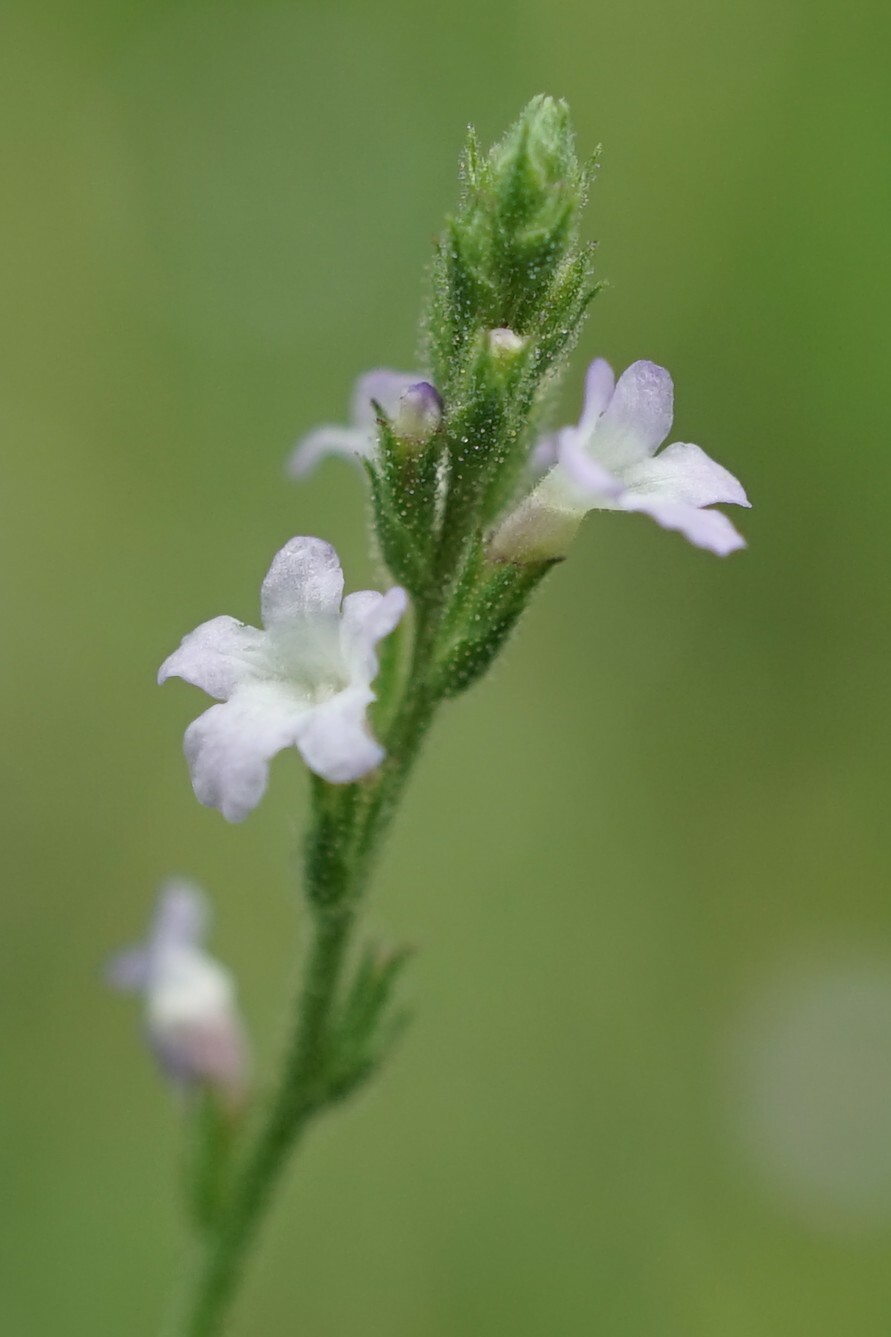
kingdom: Plantae
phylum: Tracheophyta
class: Magnoliopsida
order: Lamiales
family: Verbenaceae
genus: Verbena
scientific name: Verbena officinalis
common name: Vervain
